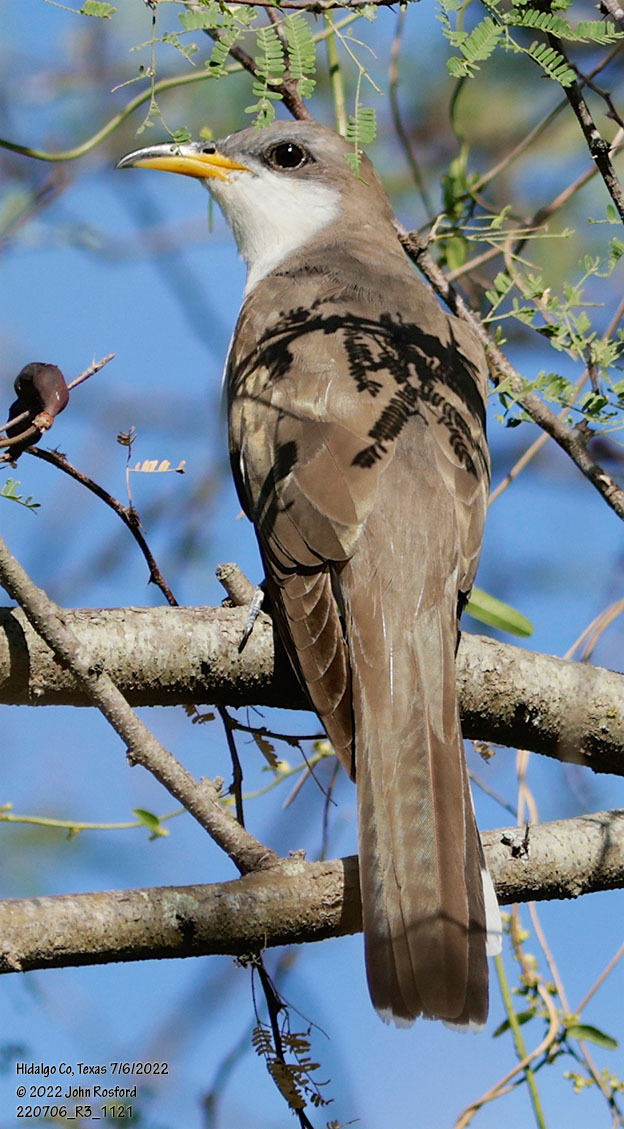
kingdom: Animalia
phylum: Chordata
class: Aves
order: Cuculiformes
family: Cuculidae
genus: Coccyzus
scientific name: Coccyzus americanus
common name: Yellow-billed cuckoo
